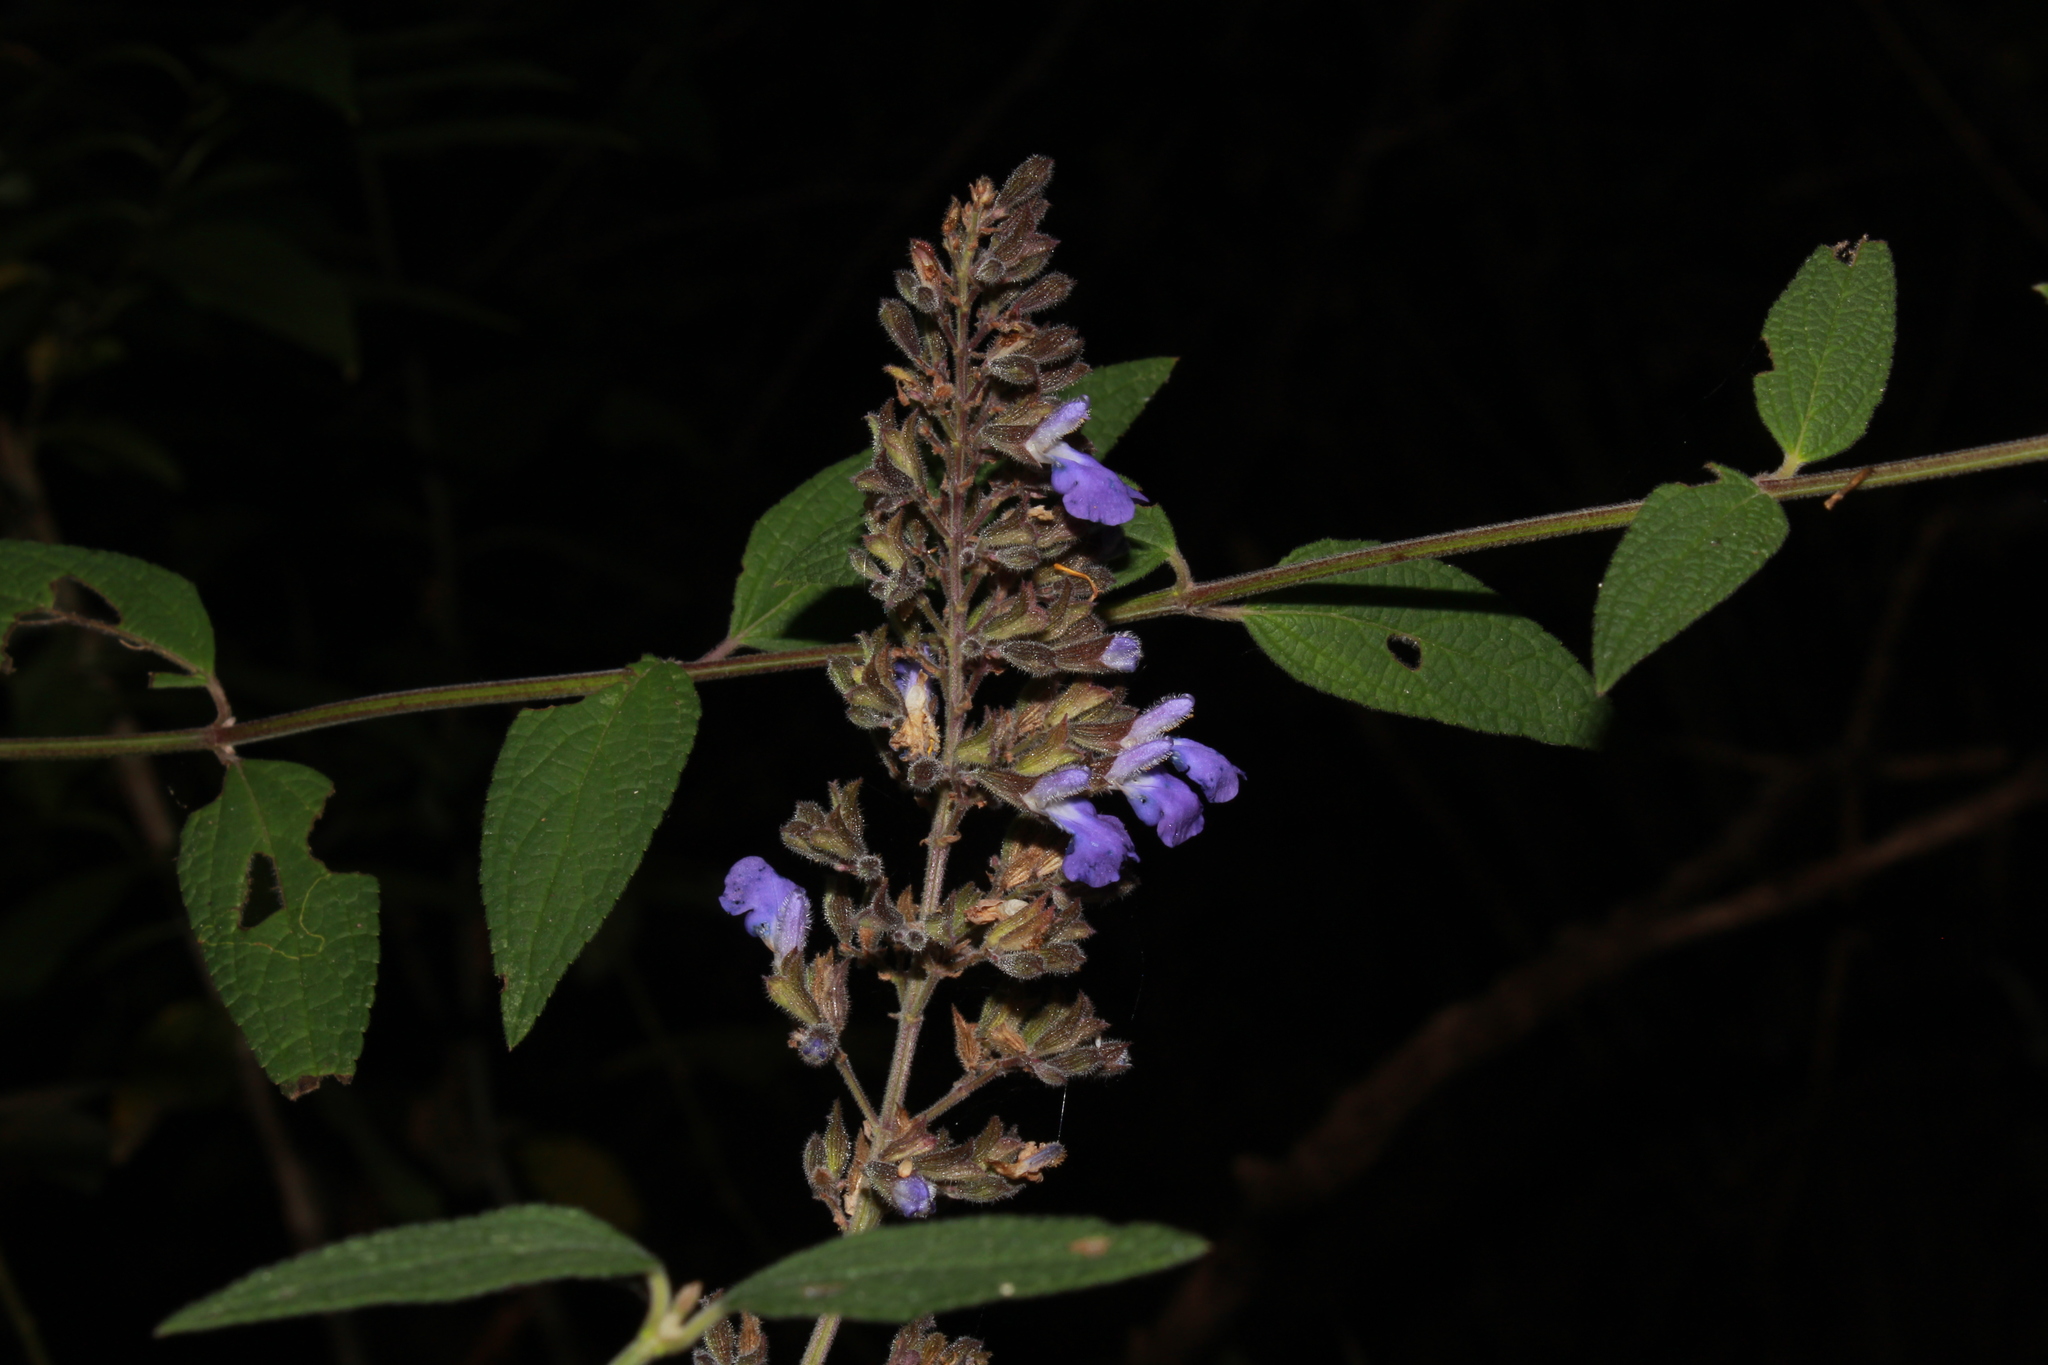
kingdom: Plantae
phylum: Tracheophyta
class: Magnoliopsida
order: Lamiales
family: Lamiaceae
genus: Salvia
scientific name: Salvia thyrsiflora
